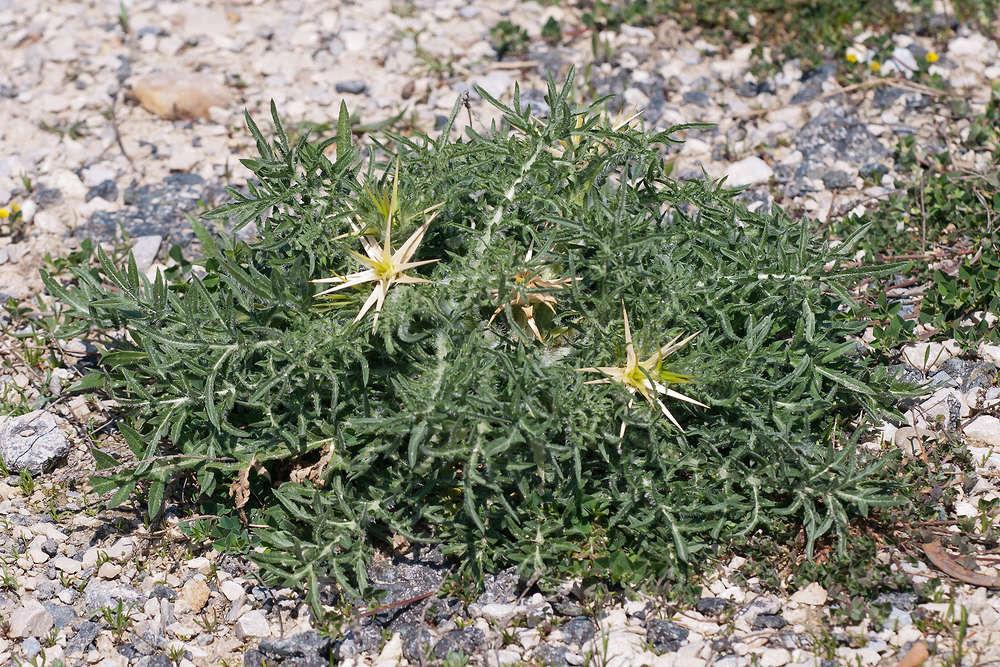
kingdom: Plantae
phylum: Tracheophyta
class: Magnoliopsida
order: Asterales
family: Asteraceae
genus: Centaurea
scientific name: Centaurea calcitrapa
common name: Red star-thistle
